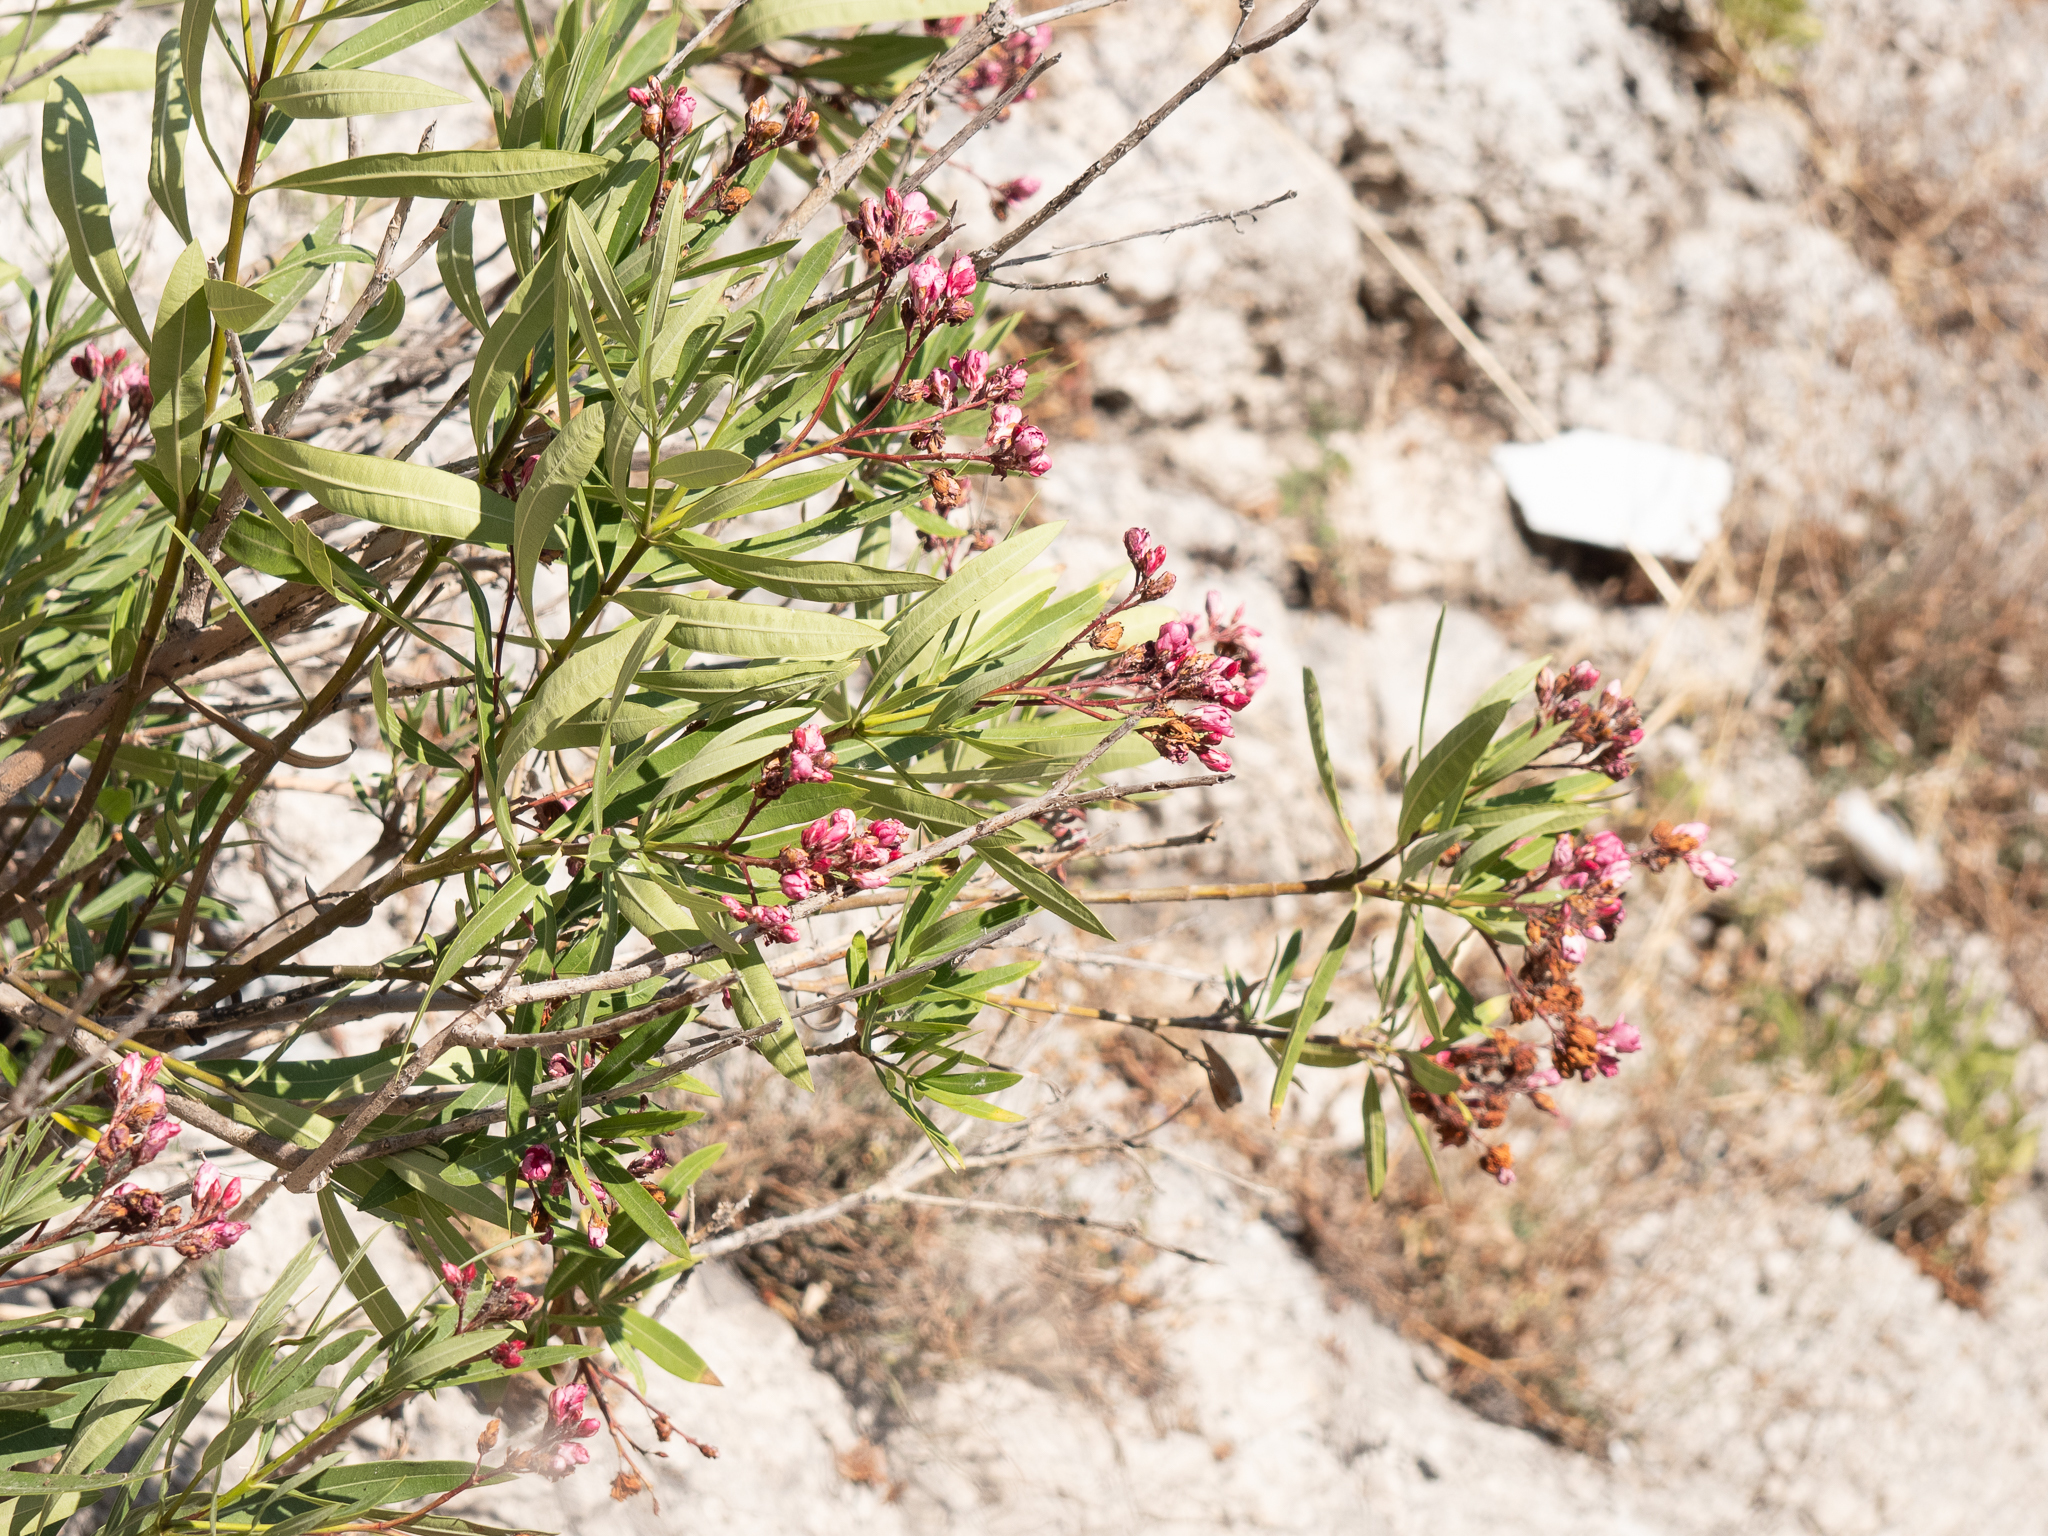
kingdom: Plantae
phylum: Tracheophyta
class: Magnoliopsida
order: Gentianales
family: Apocynaceae
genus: Nerium
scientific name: Nerium oleander
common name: Oleander
